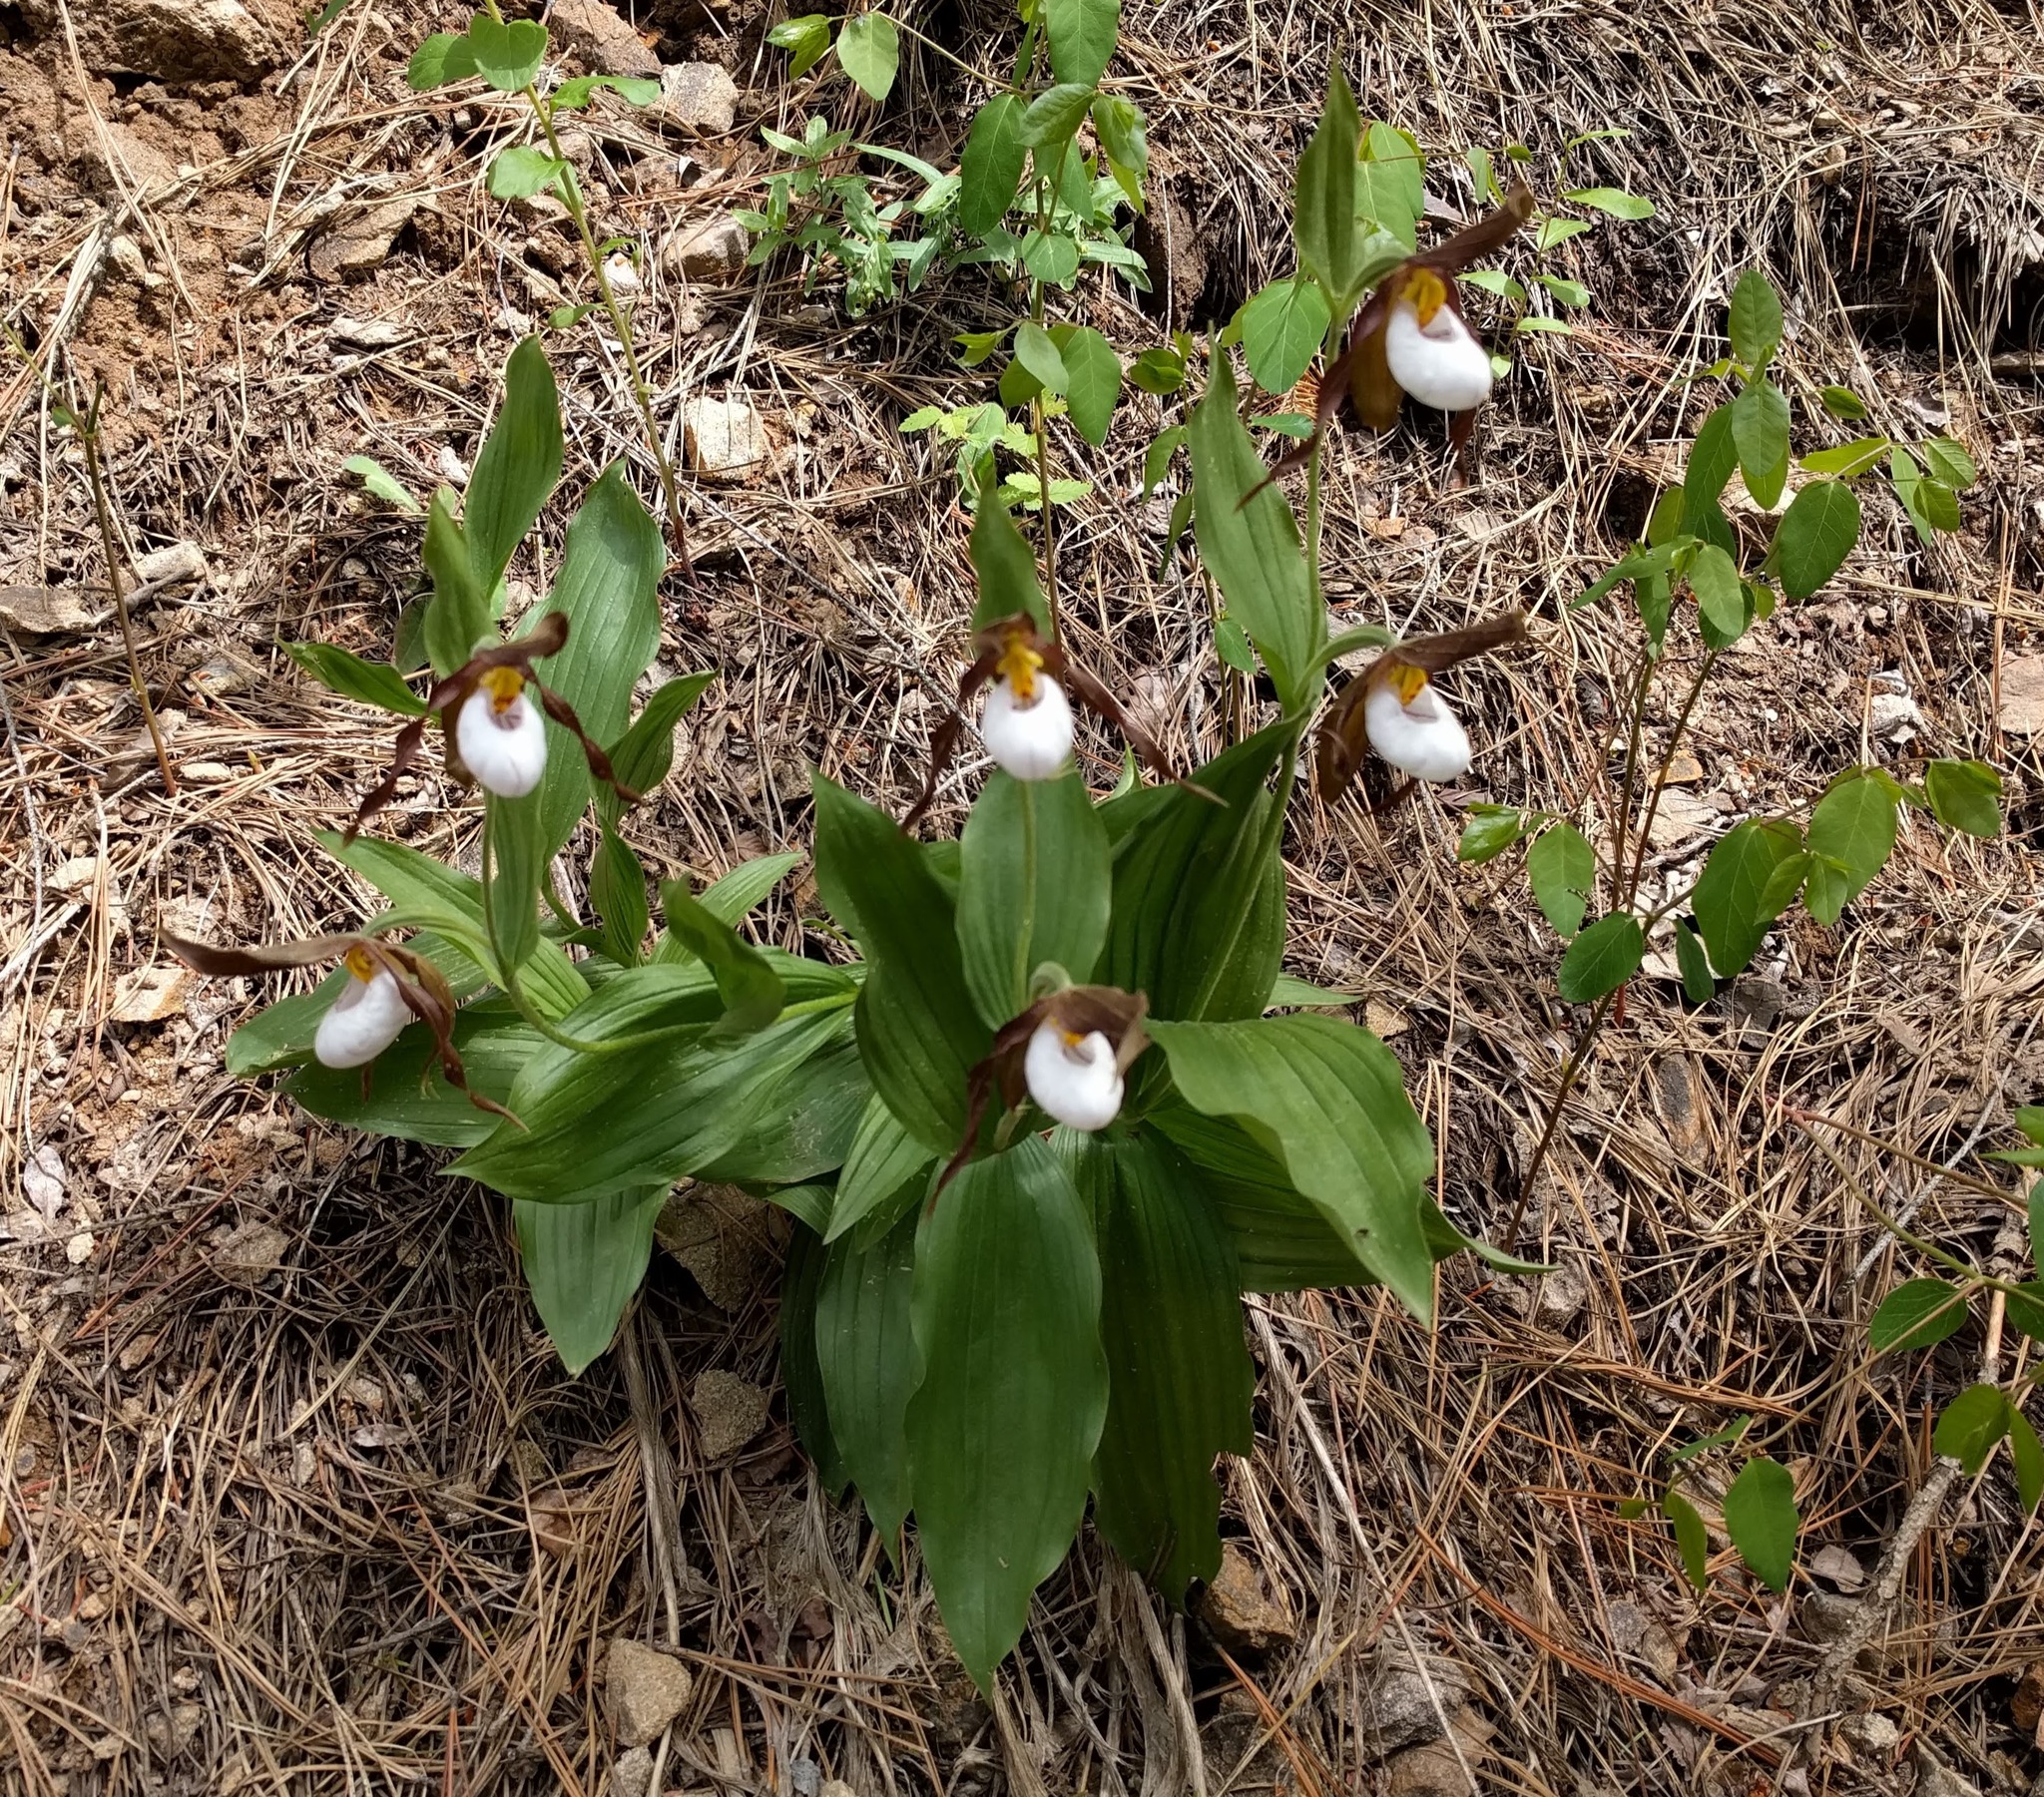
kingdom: Plantae
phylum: Tracheophyta
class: Liliopsida
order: Asparagales
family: Orchidaceae
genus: Cypripedium
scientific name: Cypripedium montanum
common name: Mountain lady's-slipper
